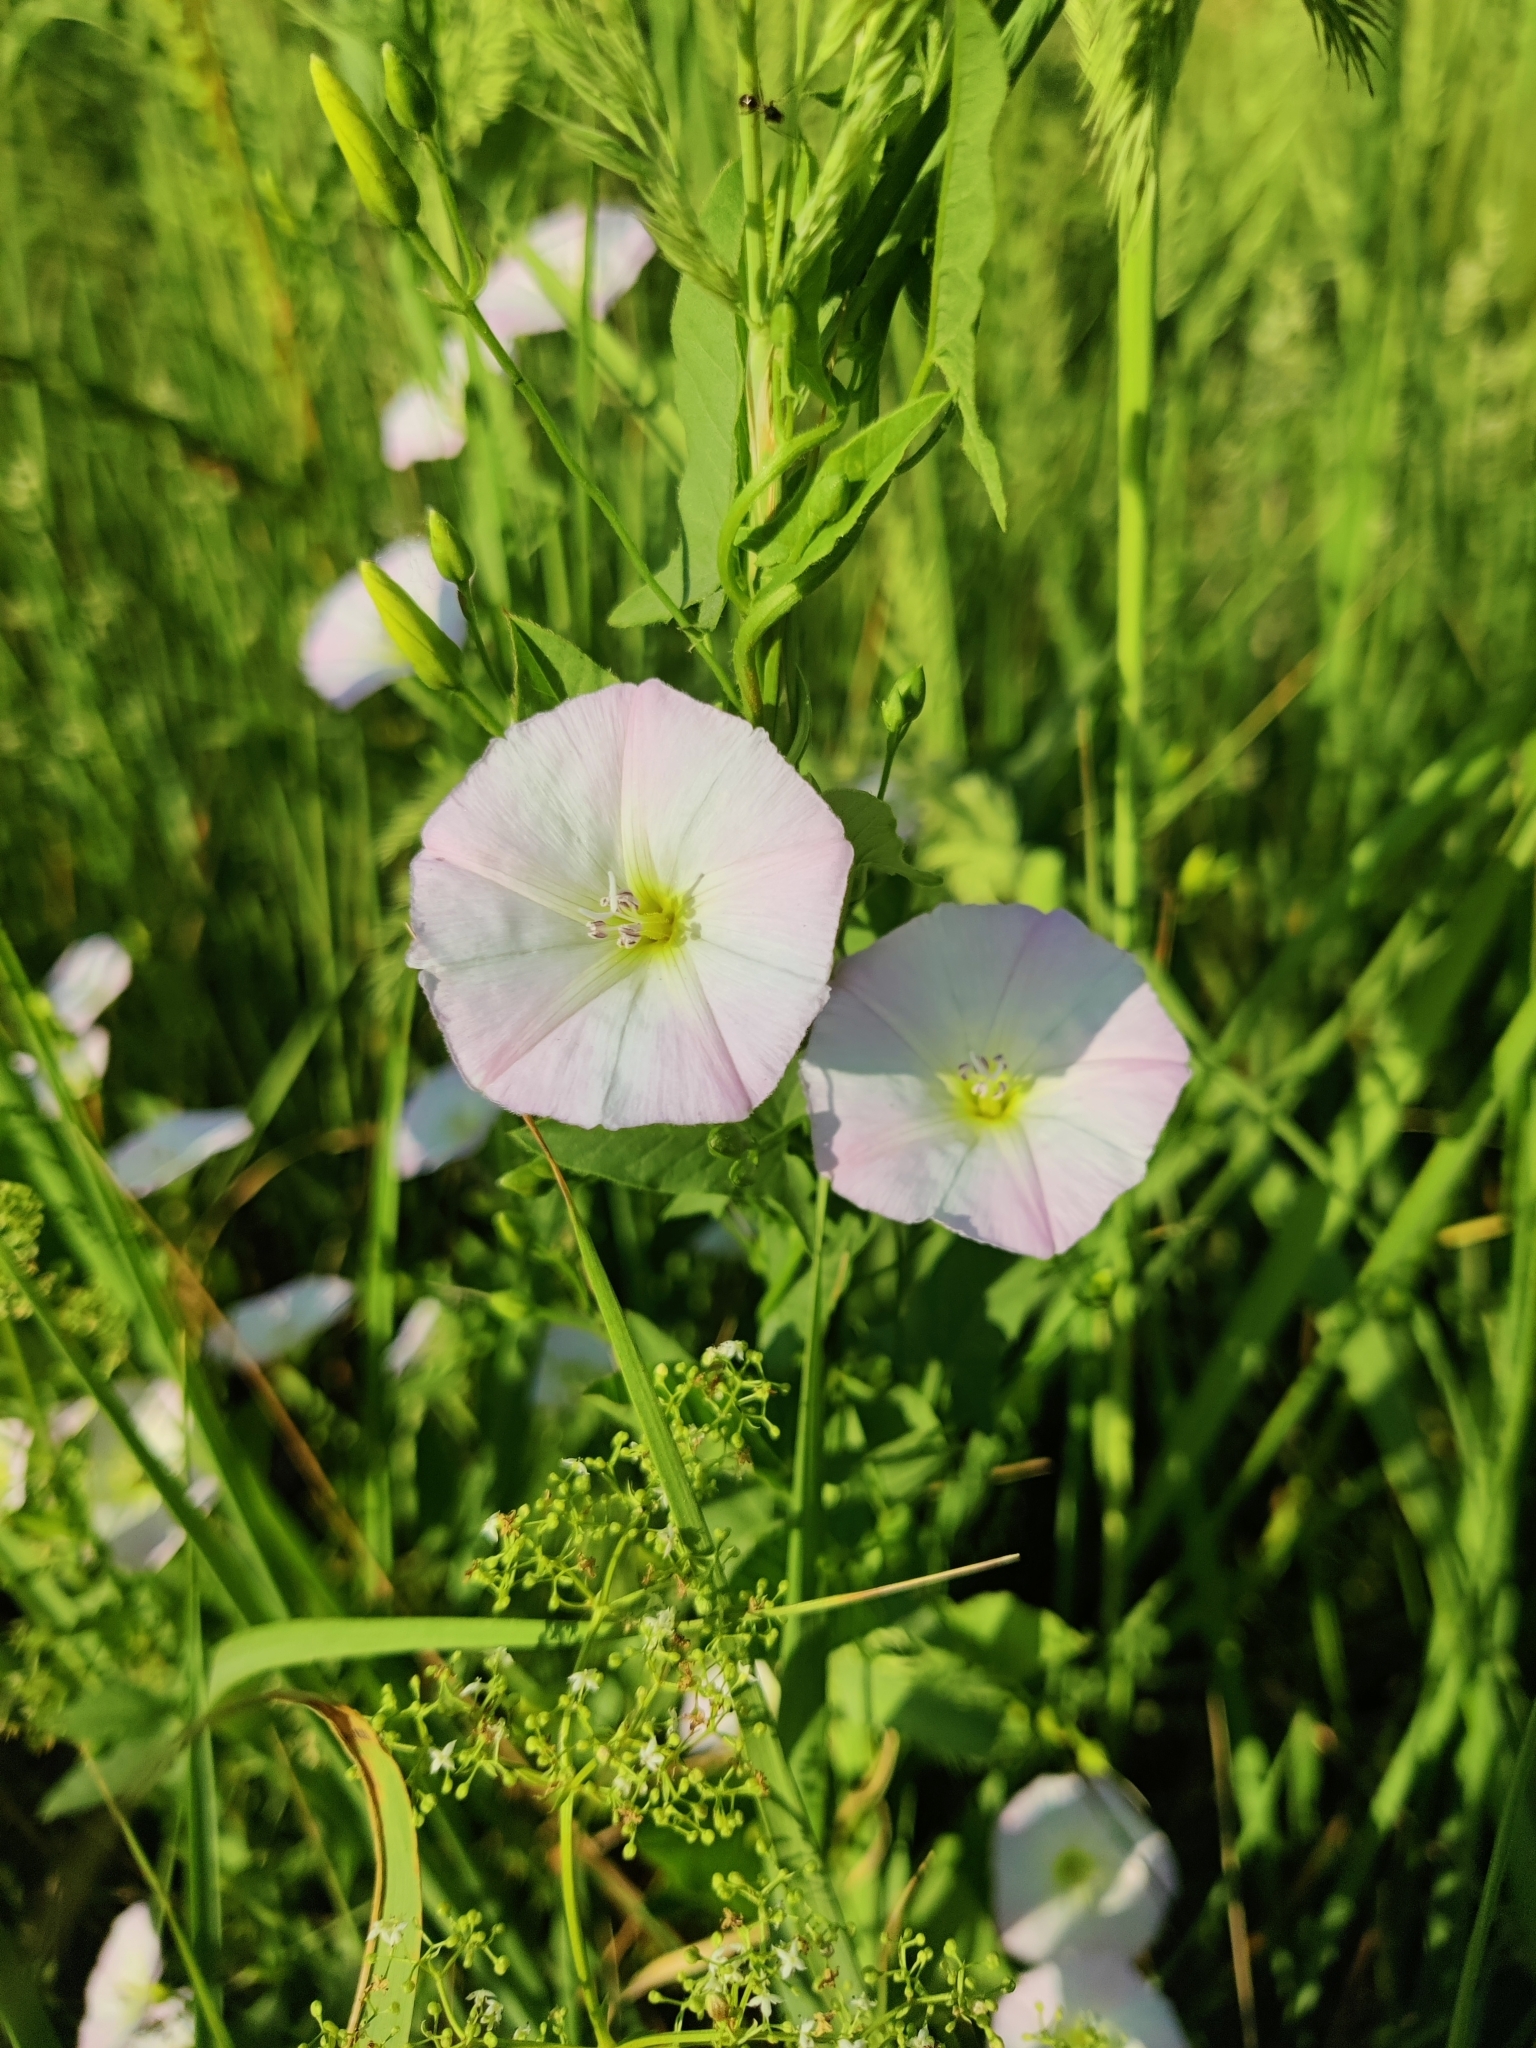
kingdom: Plantae
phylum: Tracheophyta
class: Magnoliopsida
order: Solanales
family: Convolvulaceae
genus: Convolvulus
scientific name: Convolvulus arvensis
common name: Field bindweed
